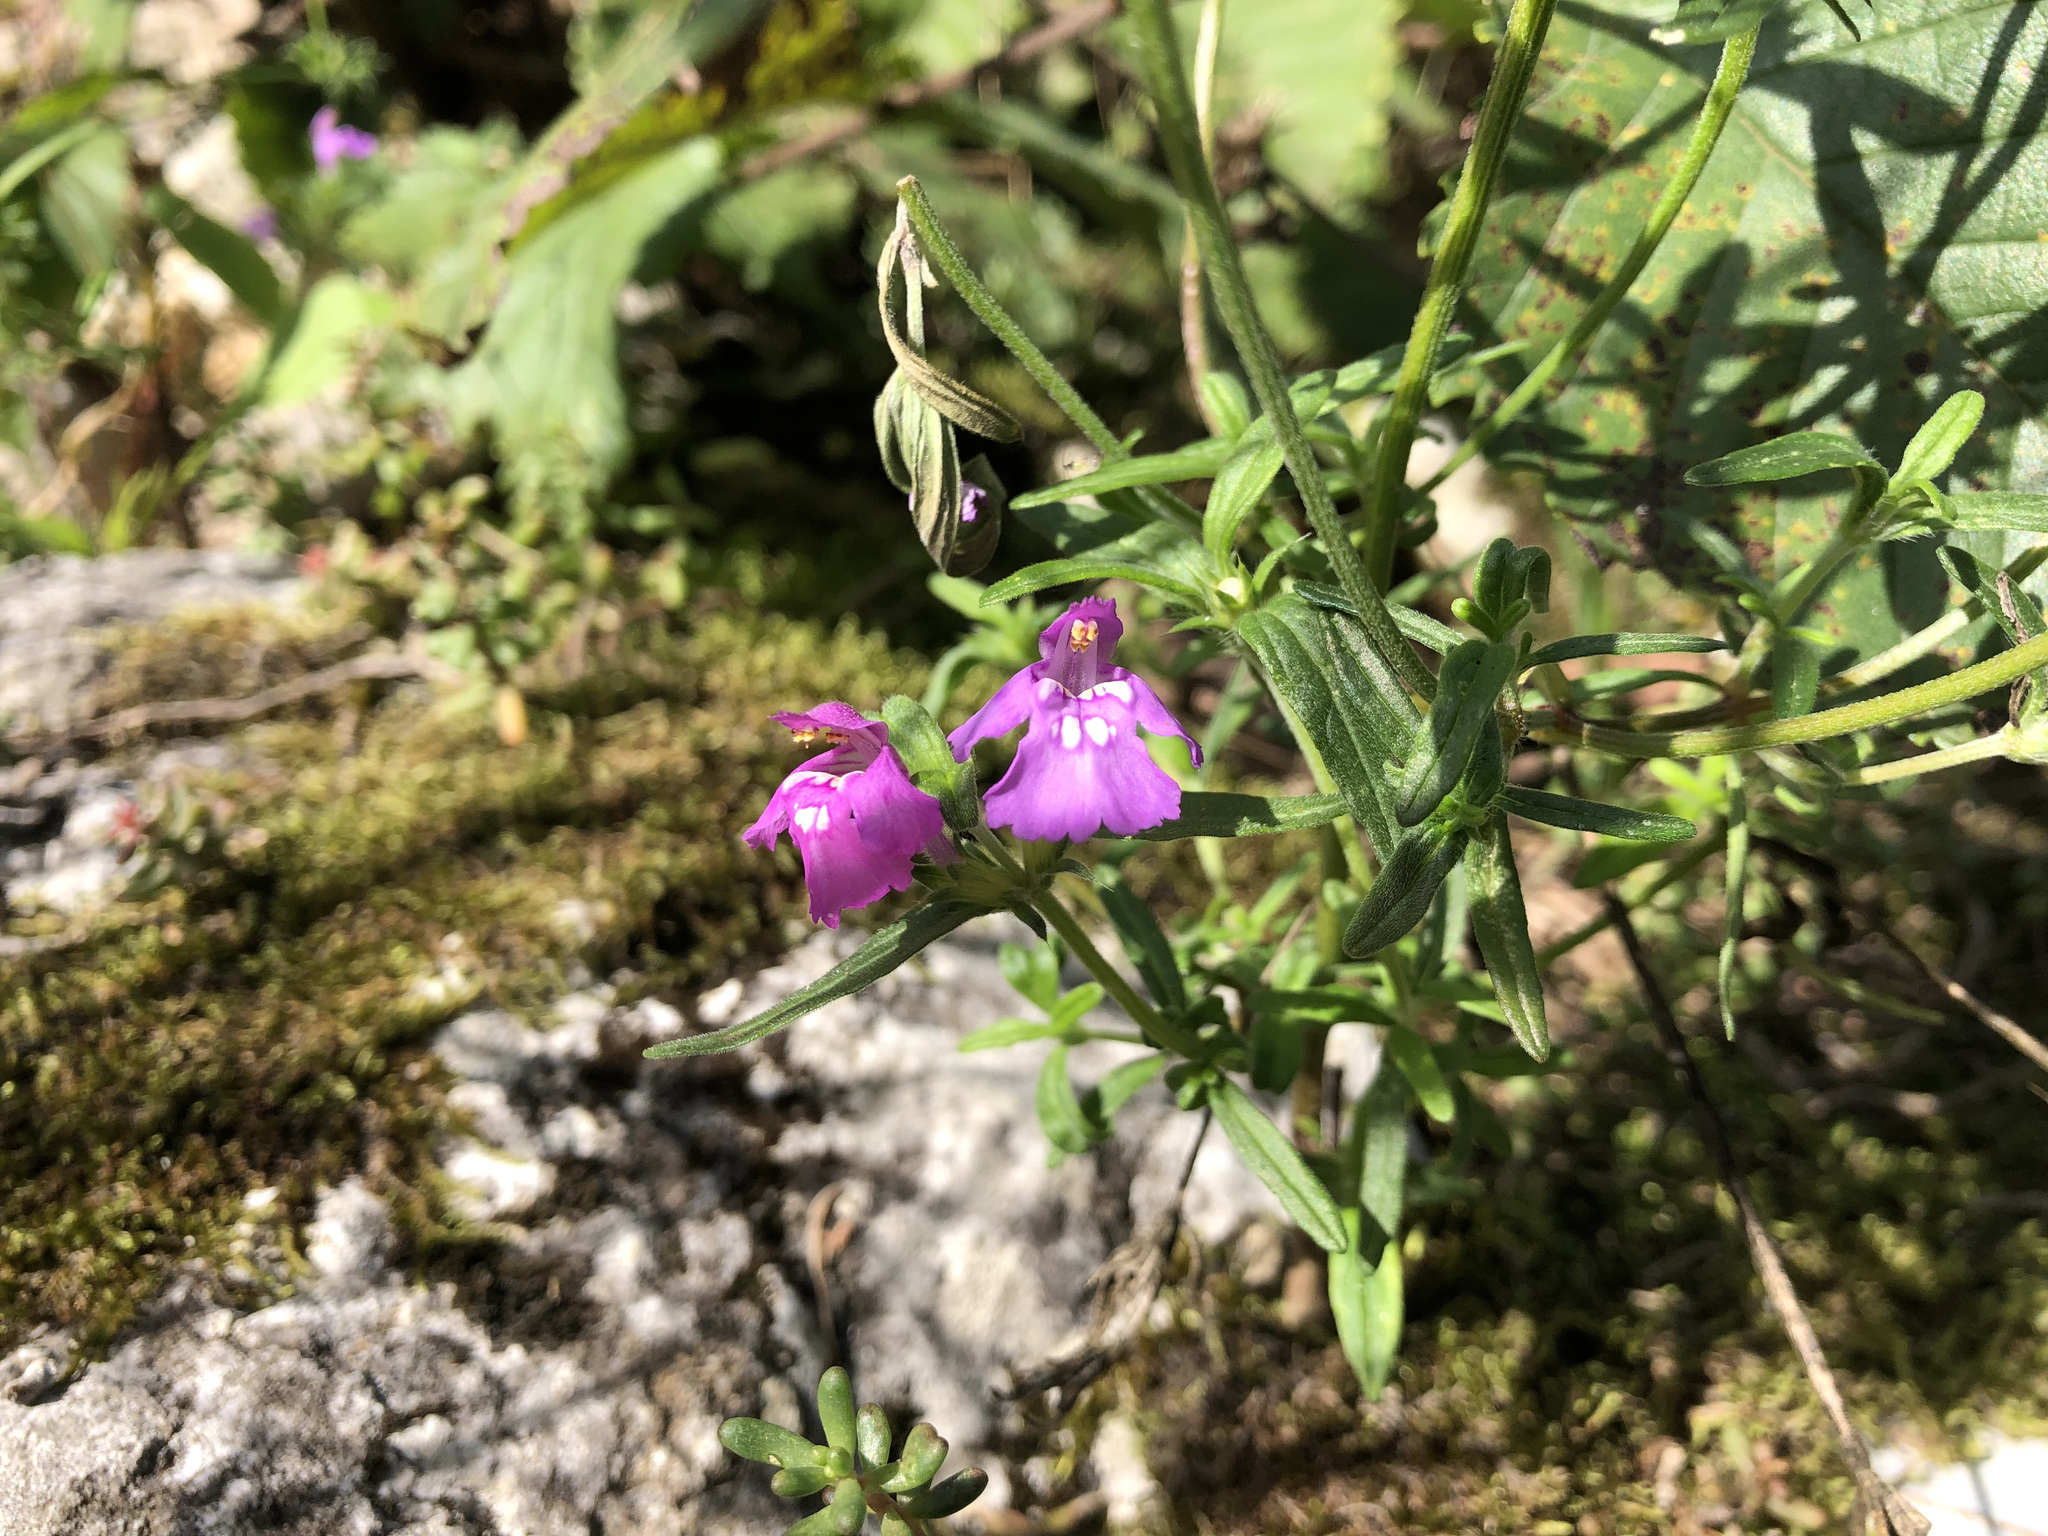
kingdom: Plantae
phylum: Tracheophyta
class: Magnoliopsida
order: Lamiales
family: Lamiaceae
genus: Galeopsis
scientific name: Galeopsis angustifolia
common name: Red hemp-nettle
